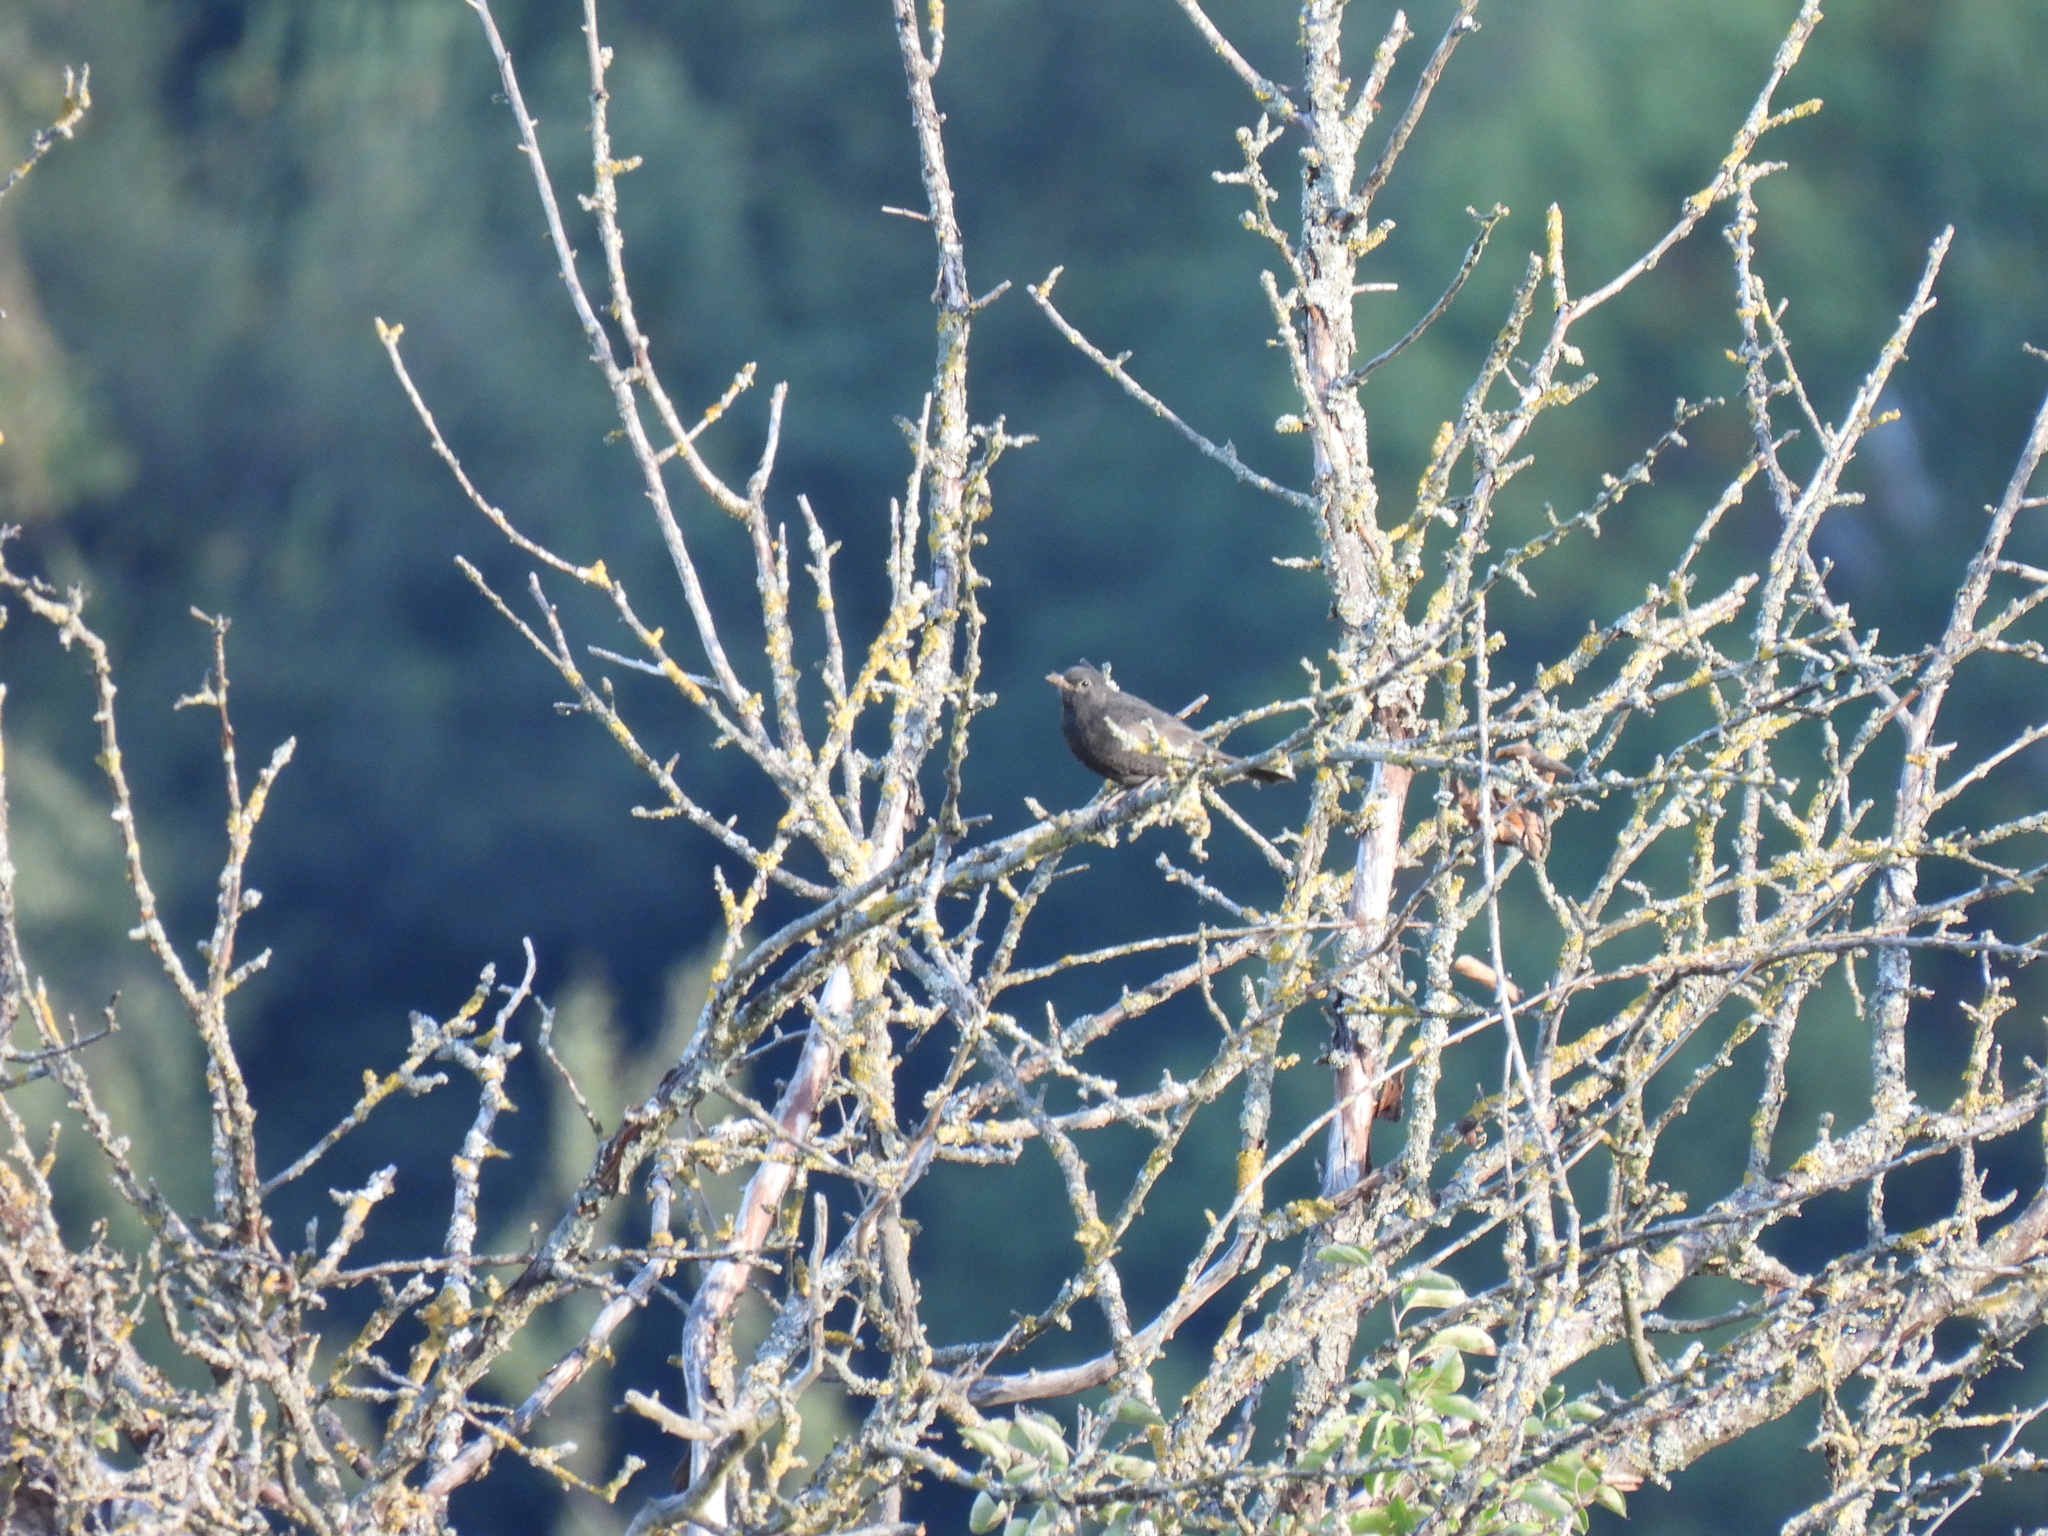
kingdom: Animalia
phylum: Chordata
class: Aves
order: Passeriformes
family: Turdidae
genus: Turdus
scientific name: Turdus merula
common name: Common blackbird
